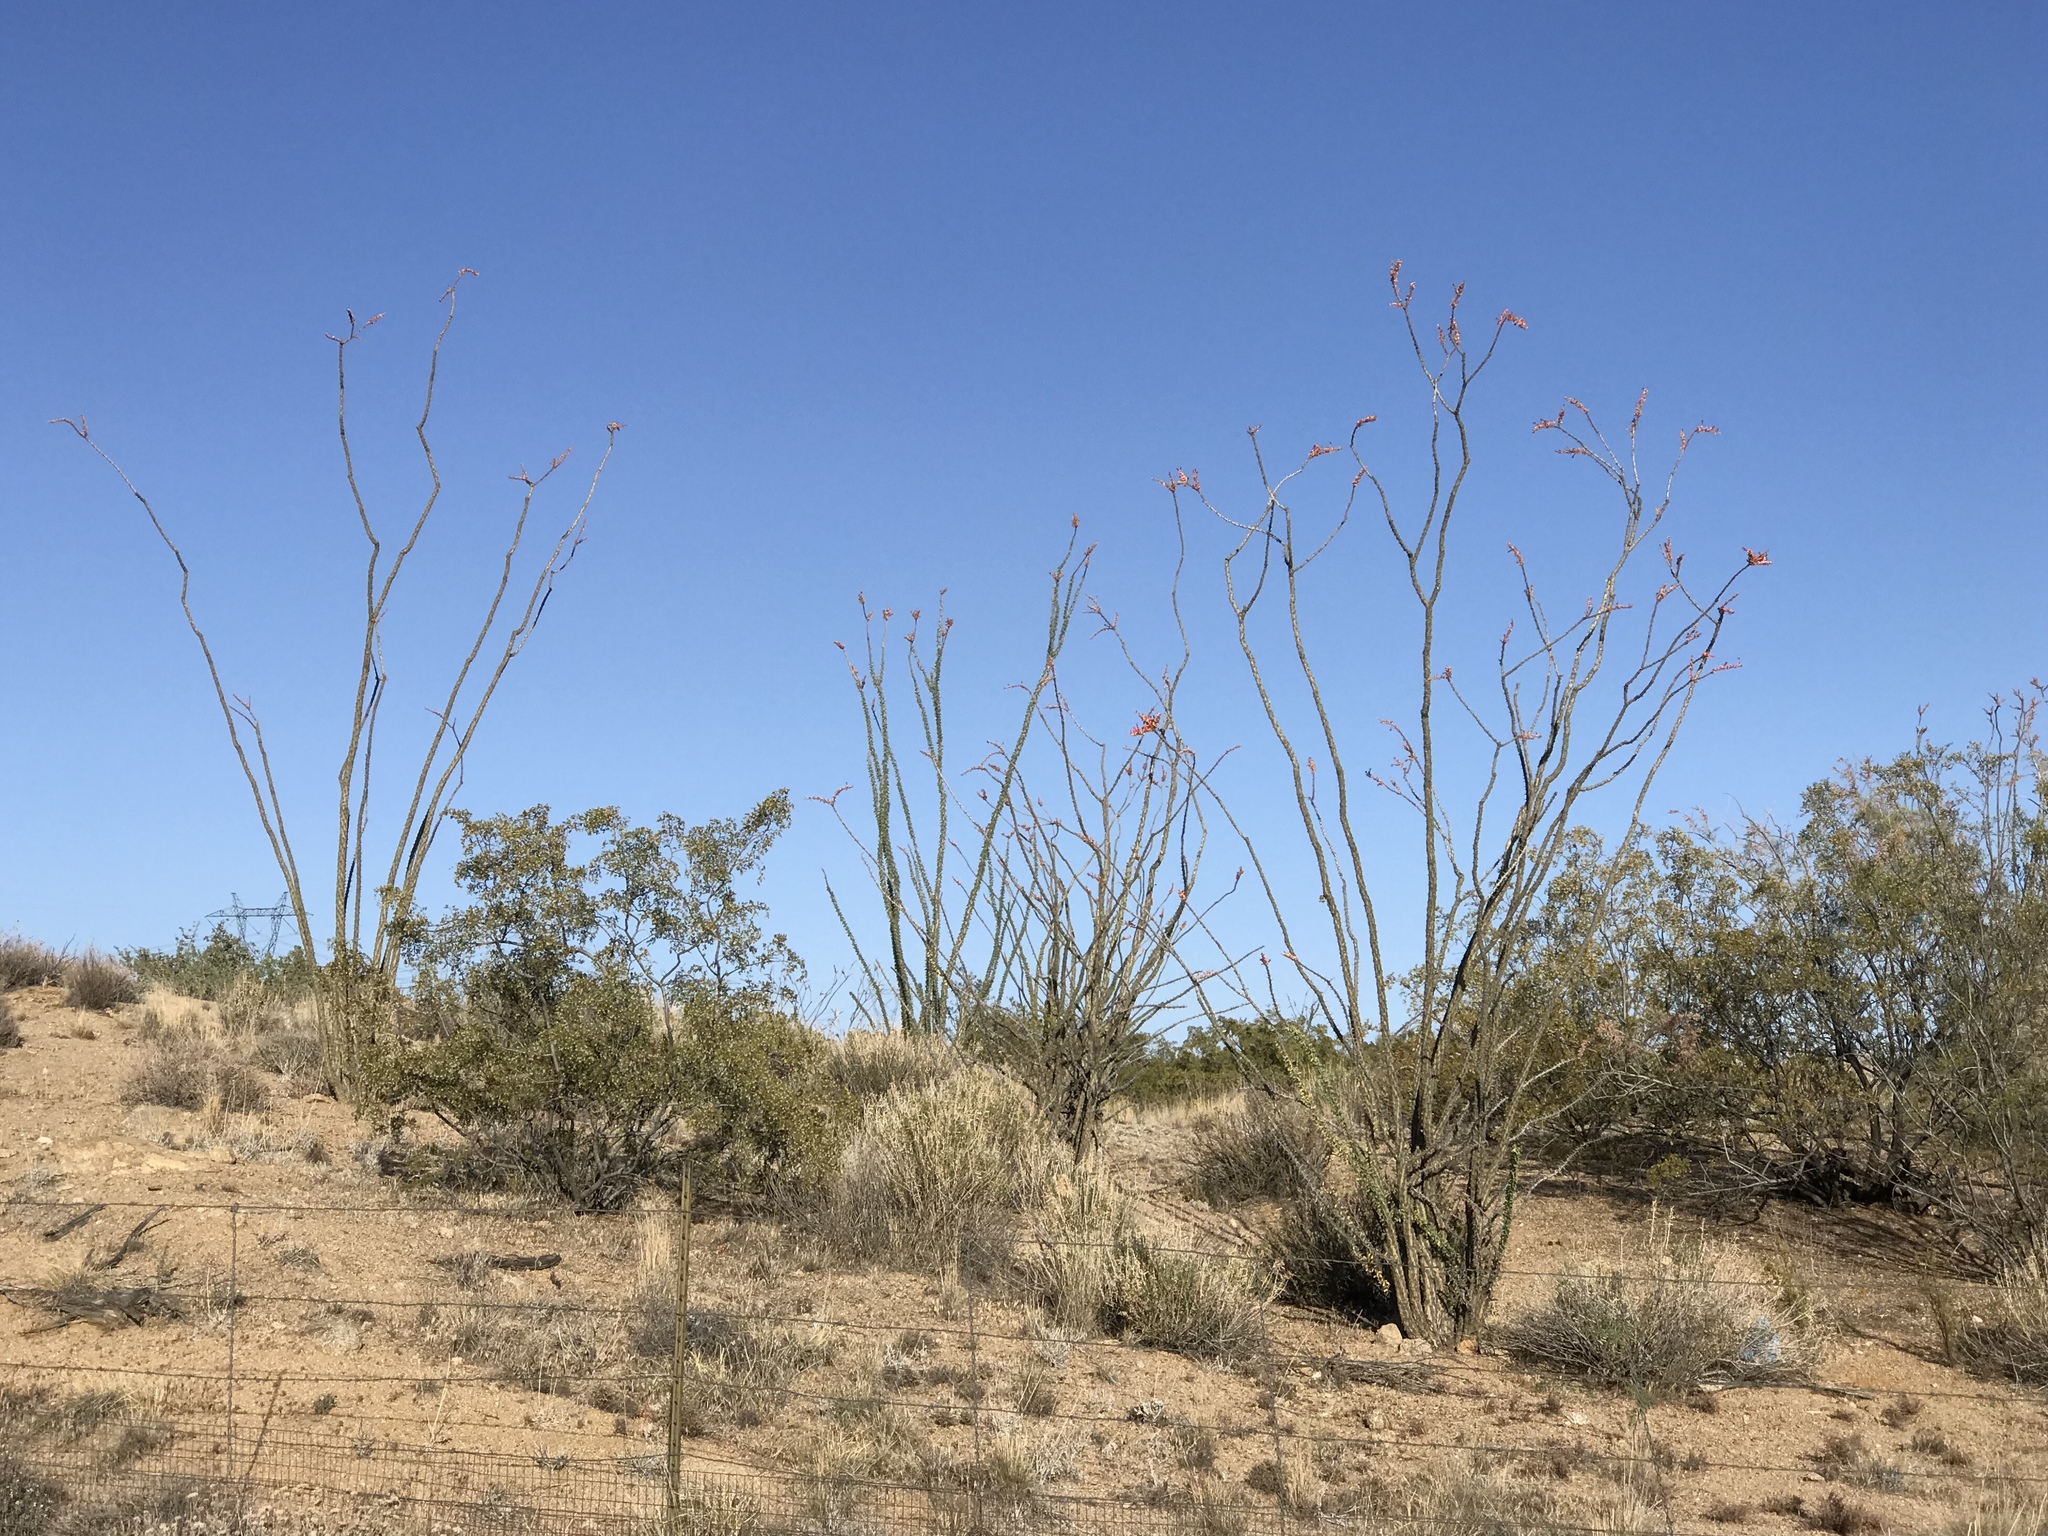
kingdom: Plantae
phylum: Tracheophyta
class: Magnoliopsida
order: Ericales
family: Fouquieriaceae
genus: Fouquieria
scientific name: Fouquieria splendens
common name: Vine-cactus
